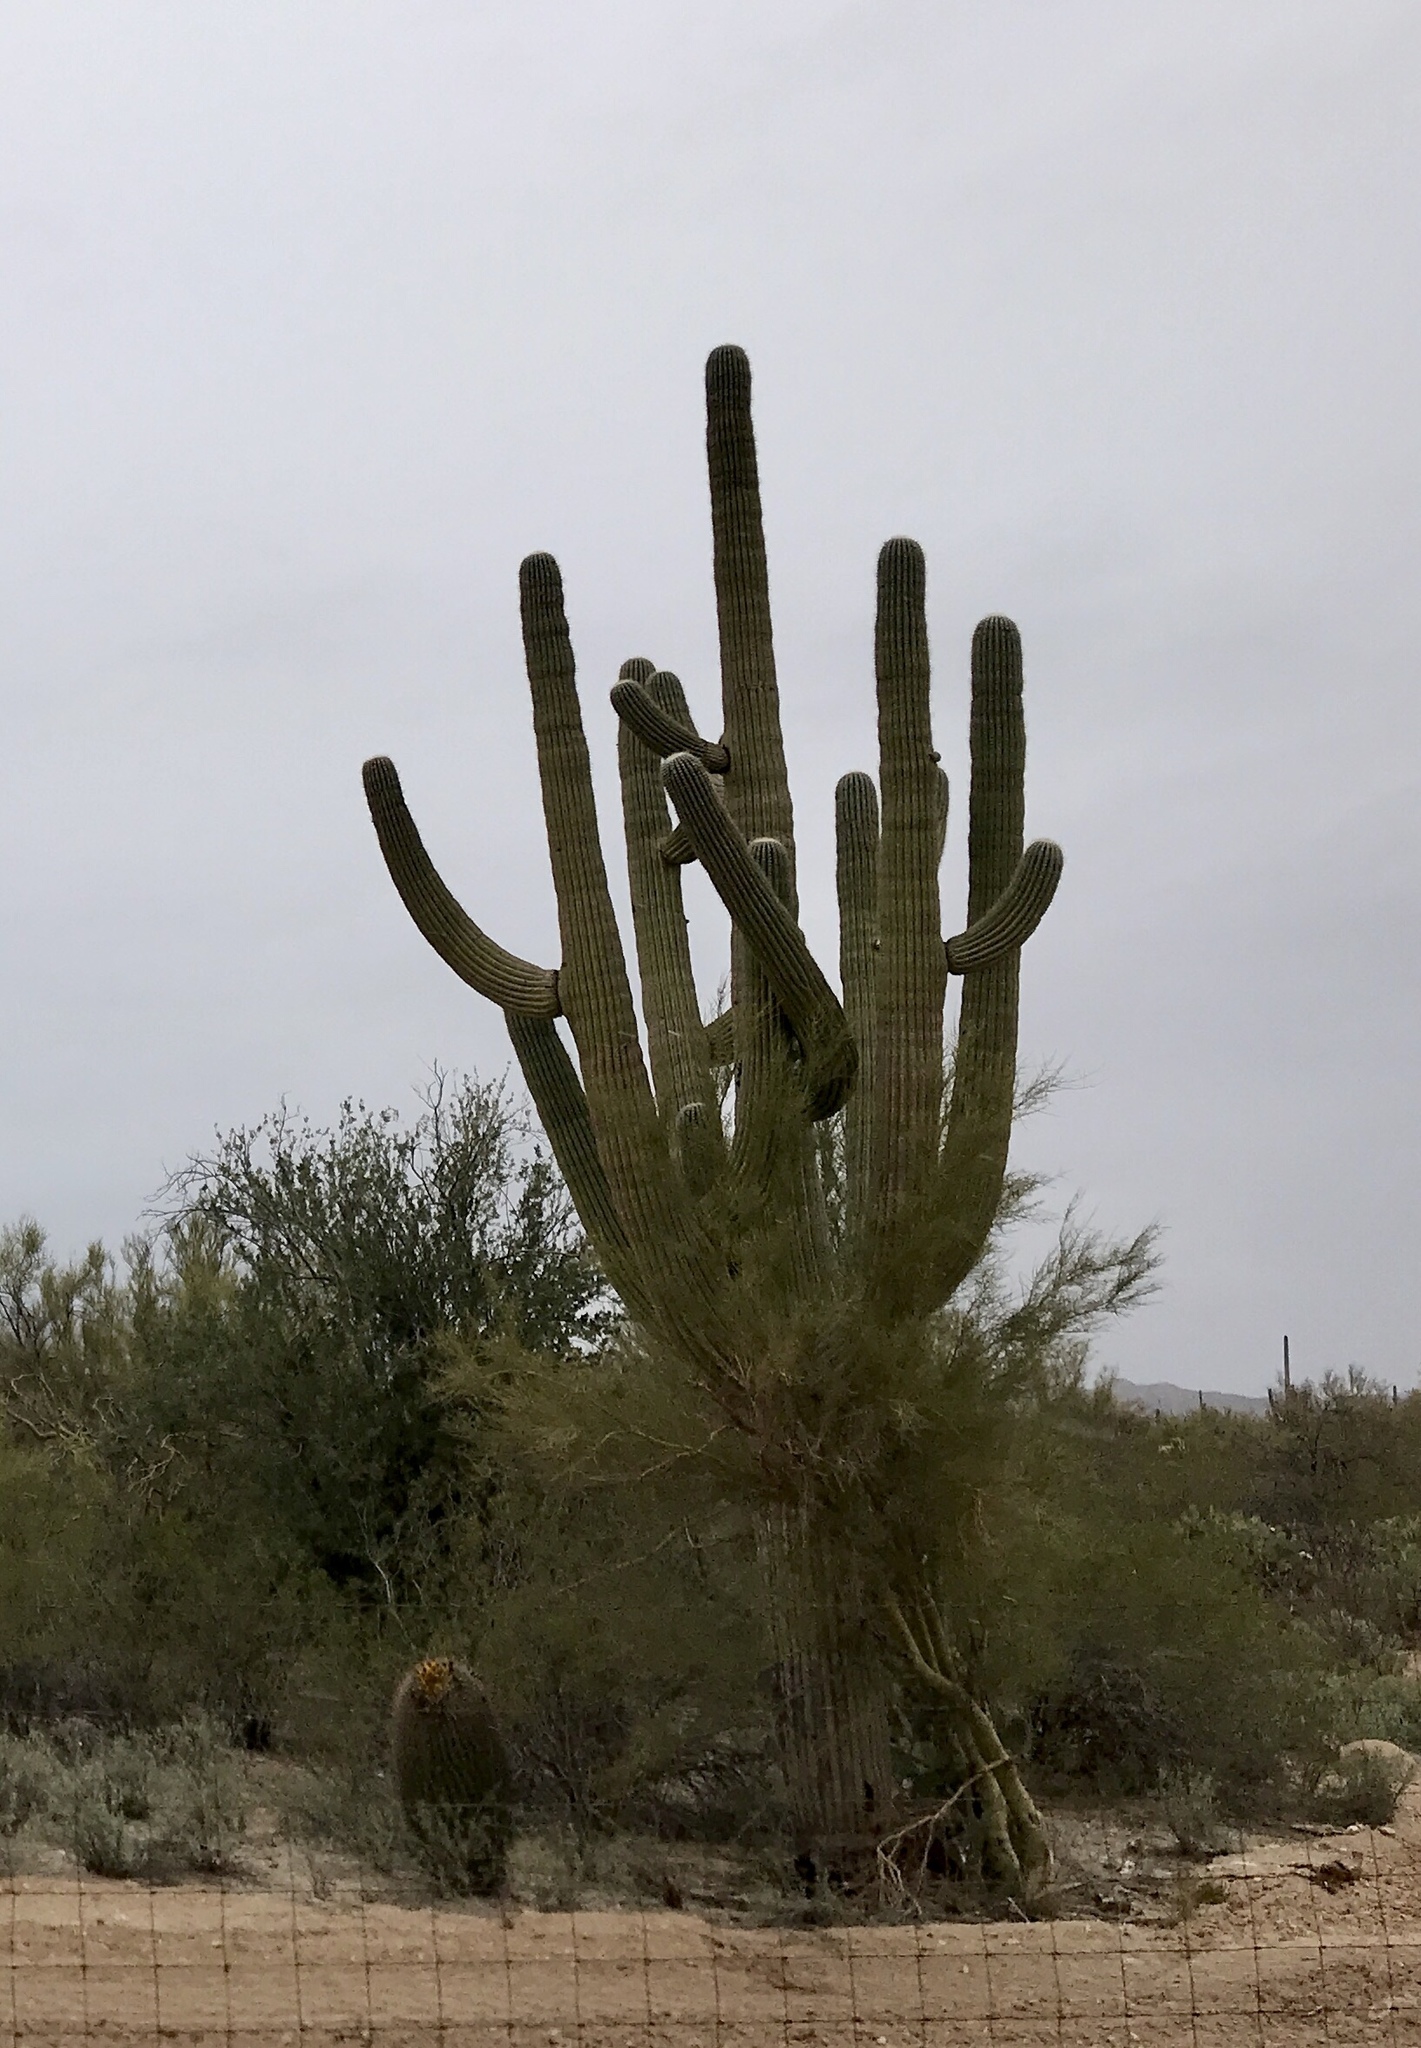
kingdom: Plantae
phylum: Tracheophyta
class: Magnoliopsida
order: Caryophyllales
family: Cactaceae
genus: Carnegiea
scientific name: Carnegiea gigantea
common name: Saguaro
